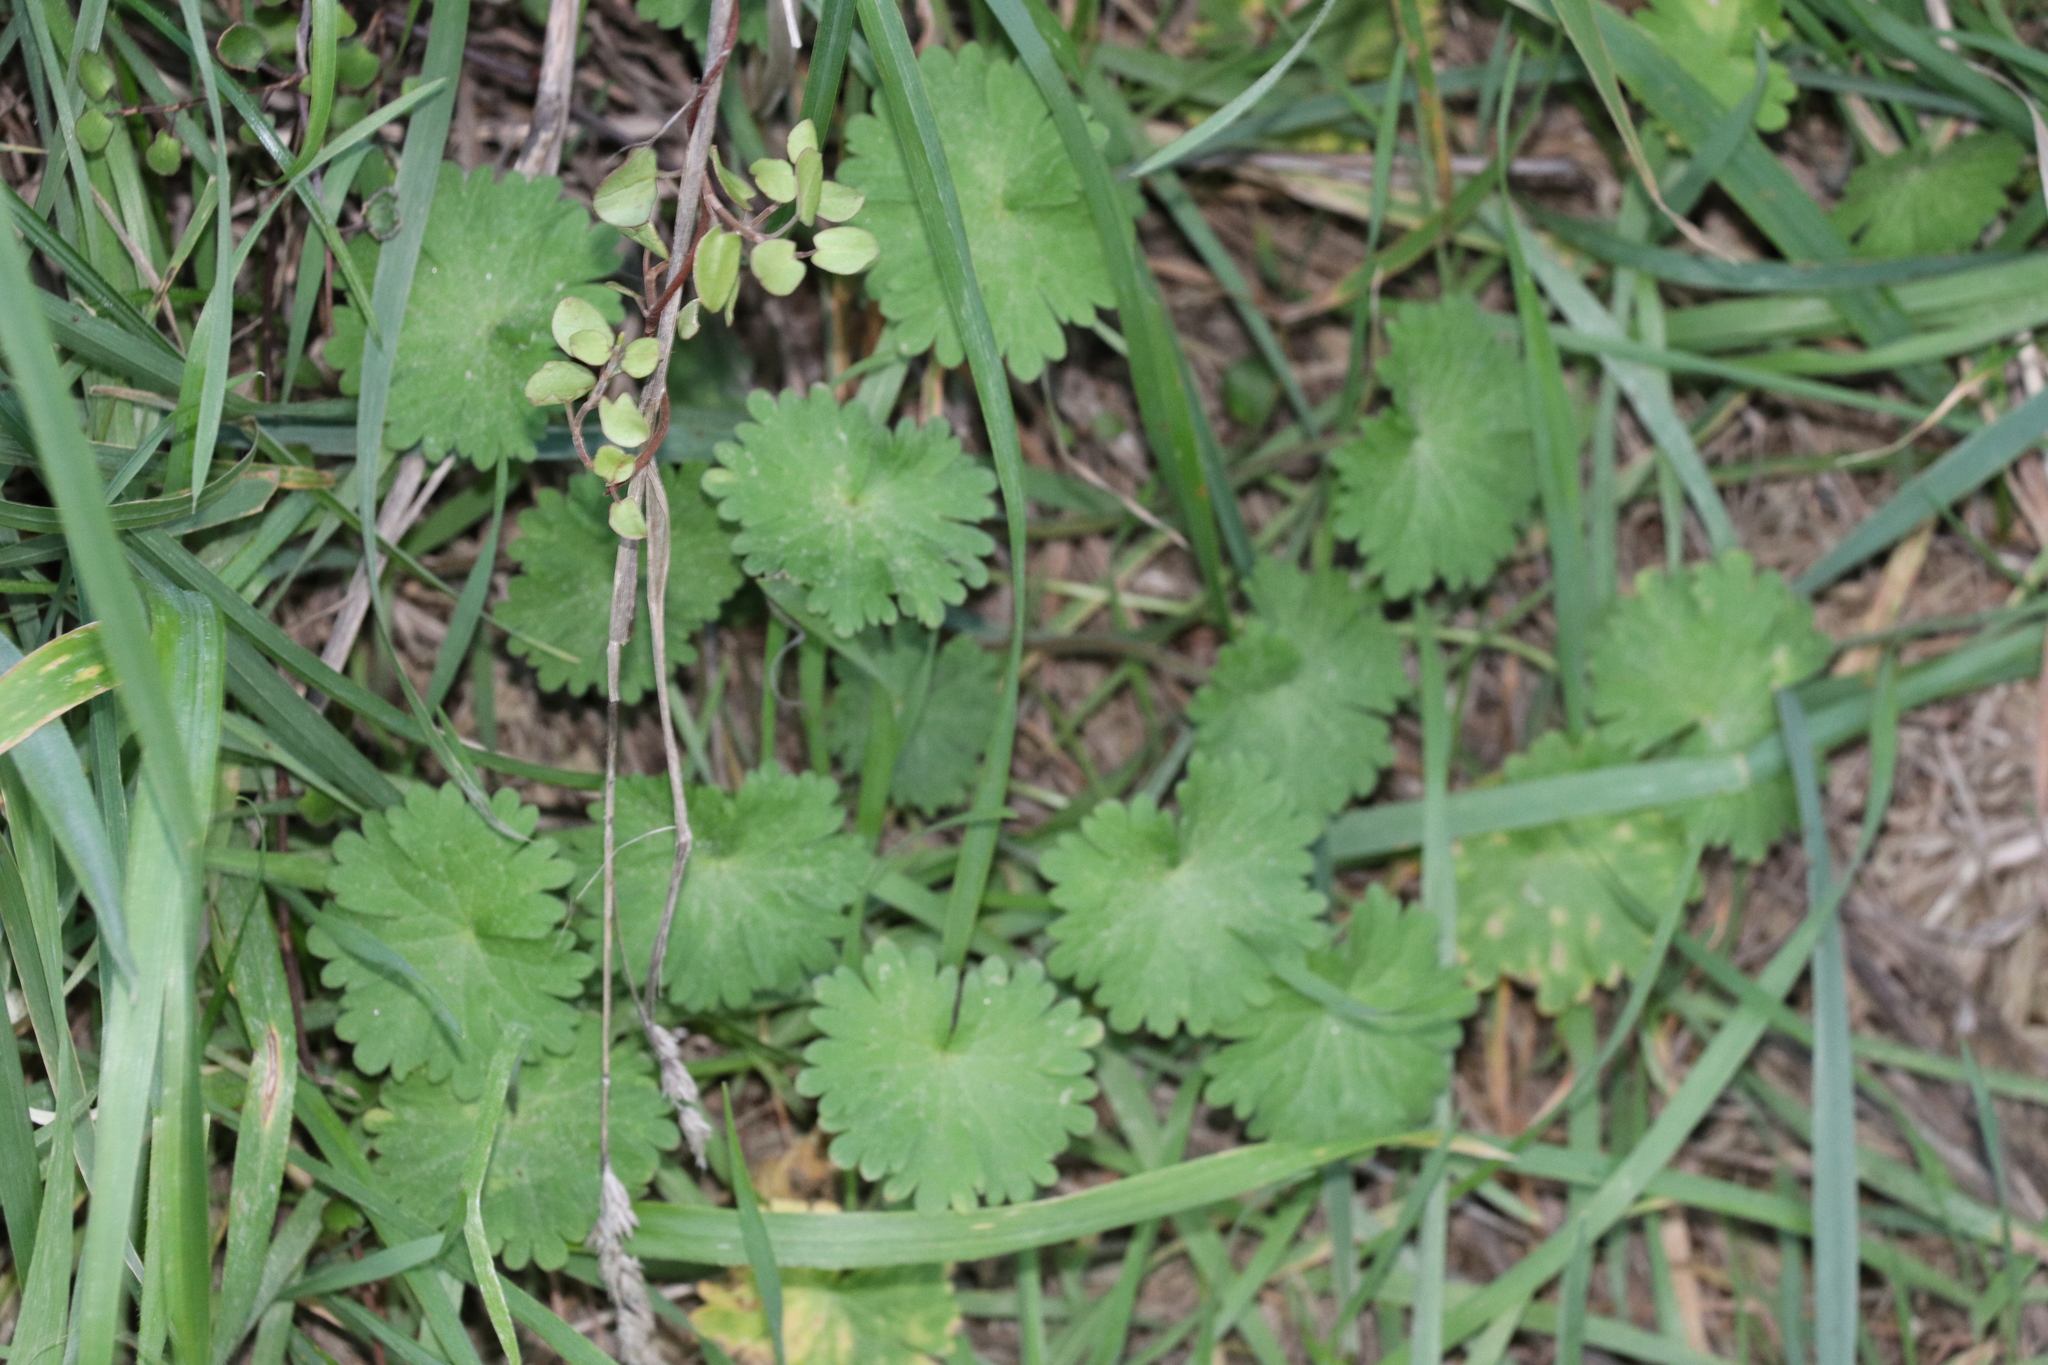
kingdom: Plantae
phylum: Tracheophyta
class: Magnoliopsida
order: Geraniales
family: Geraniaceae
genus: Geranium
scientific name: Geranium molle
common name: Dove's-foot crane's-bill
